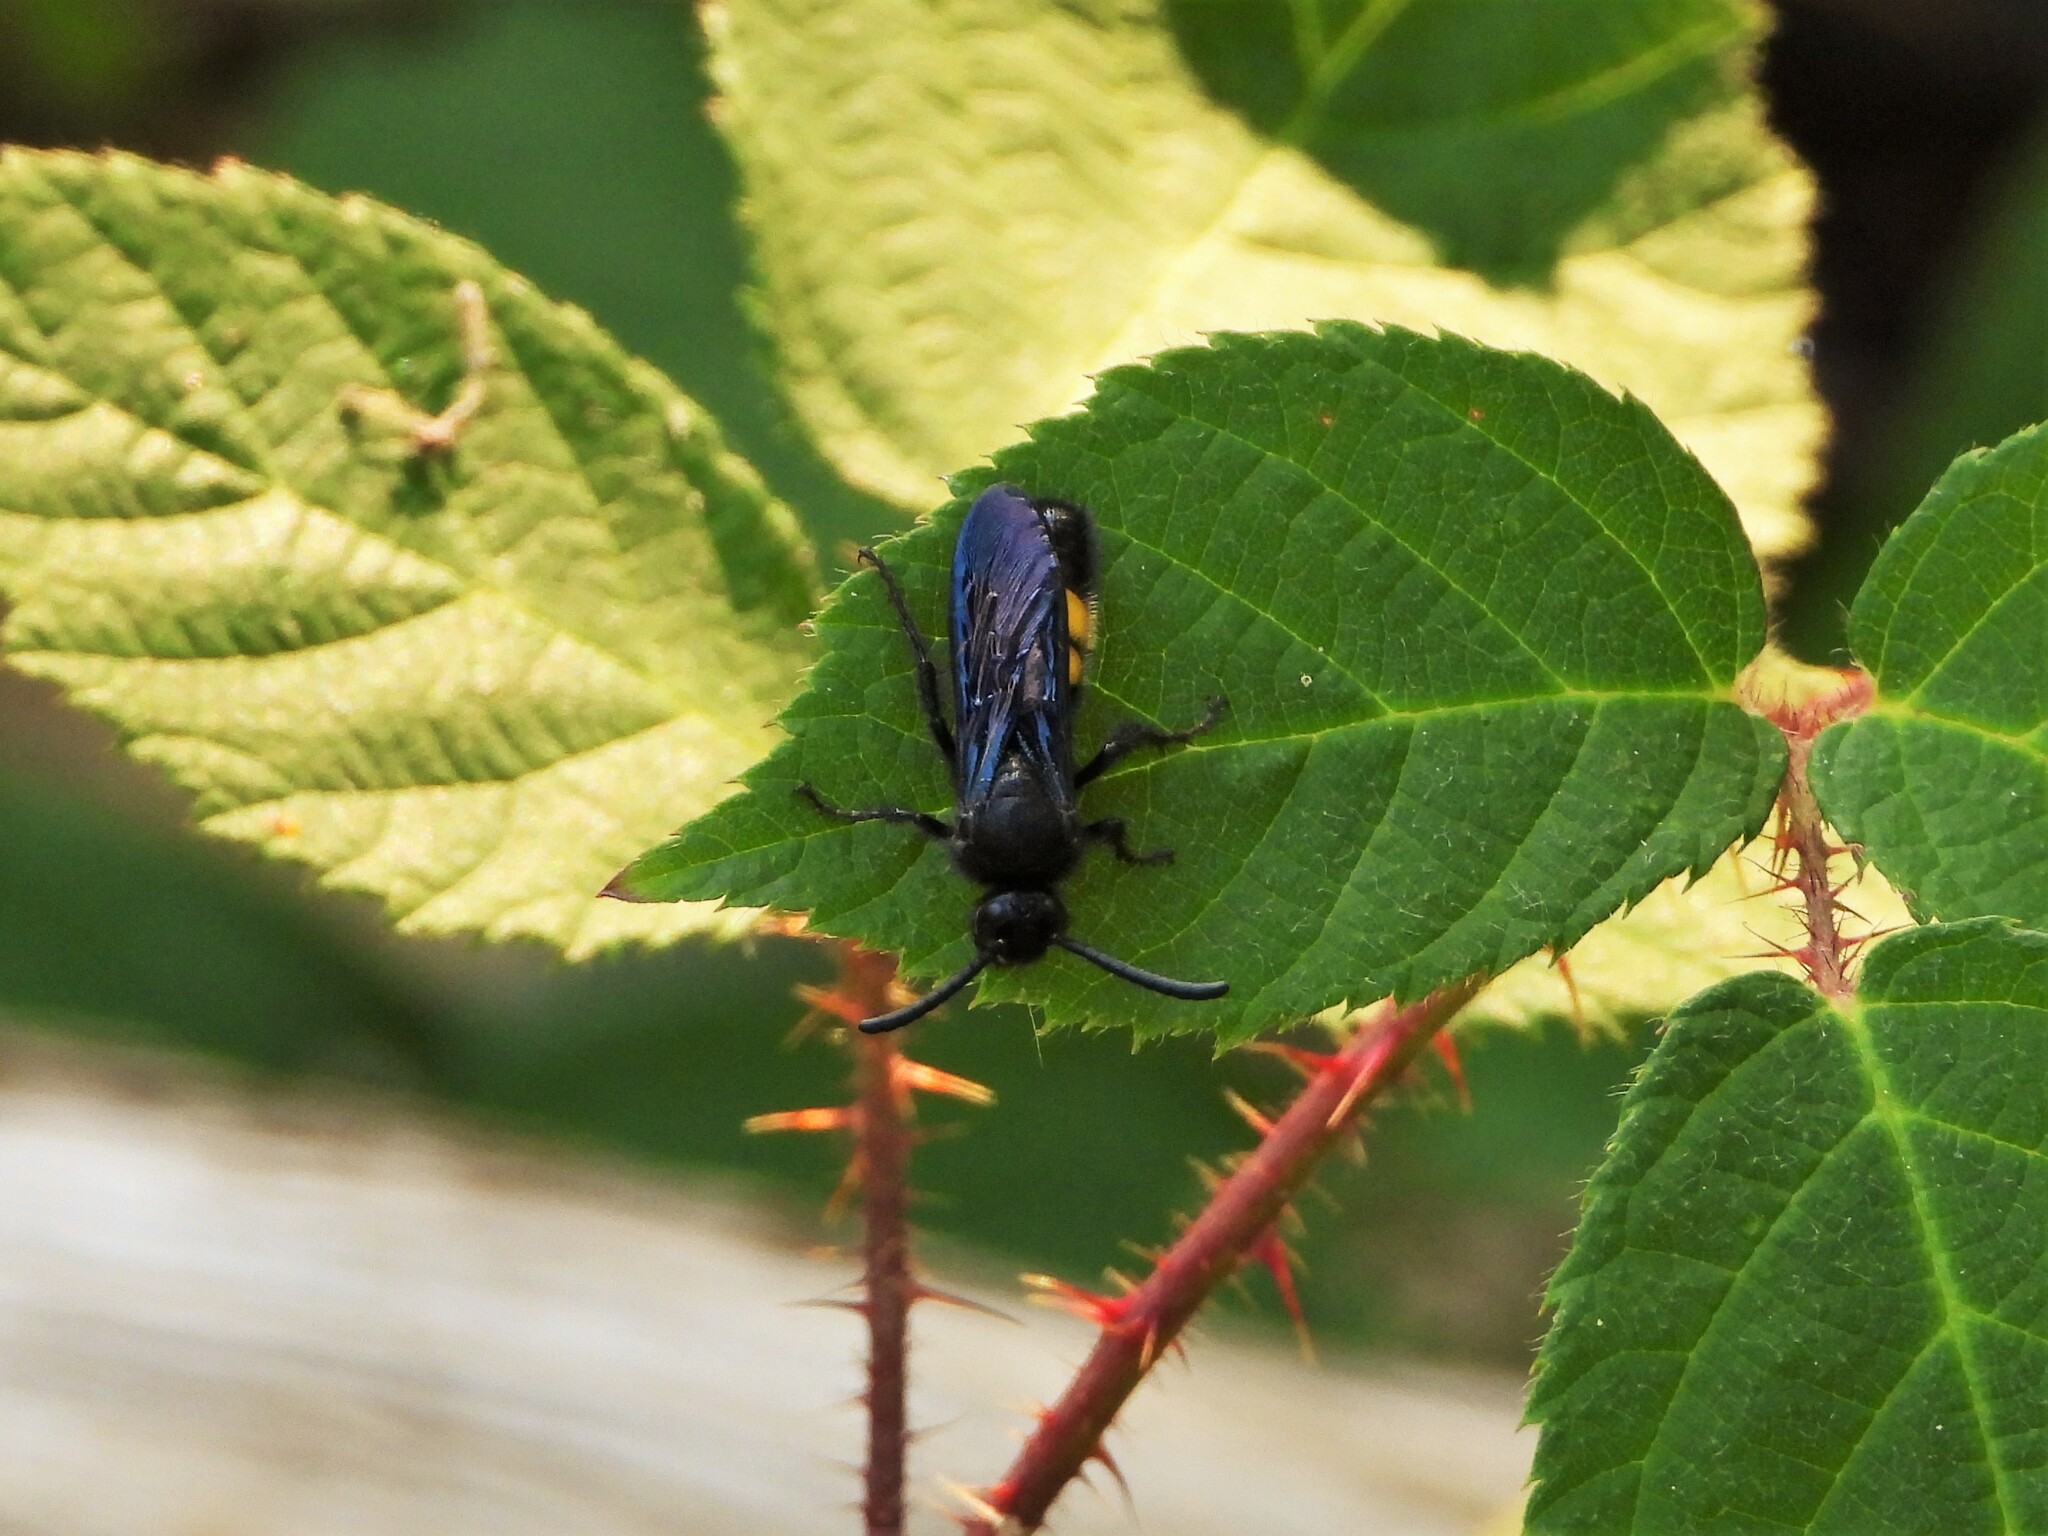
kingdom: Animalia
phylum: Arthropoda
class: Insecta
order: Hymenoptera
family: Scoliidae
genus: Scolia
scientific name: Scolia hirta
